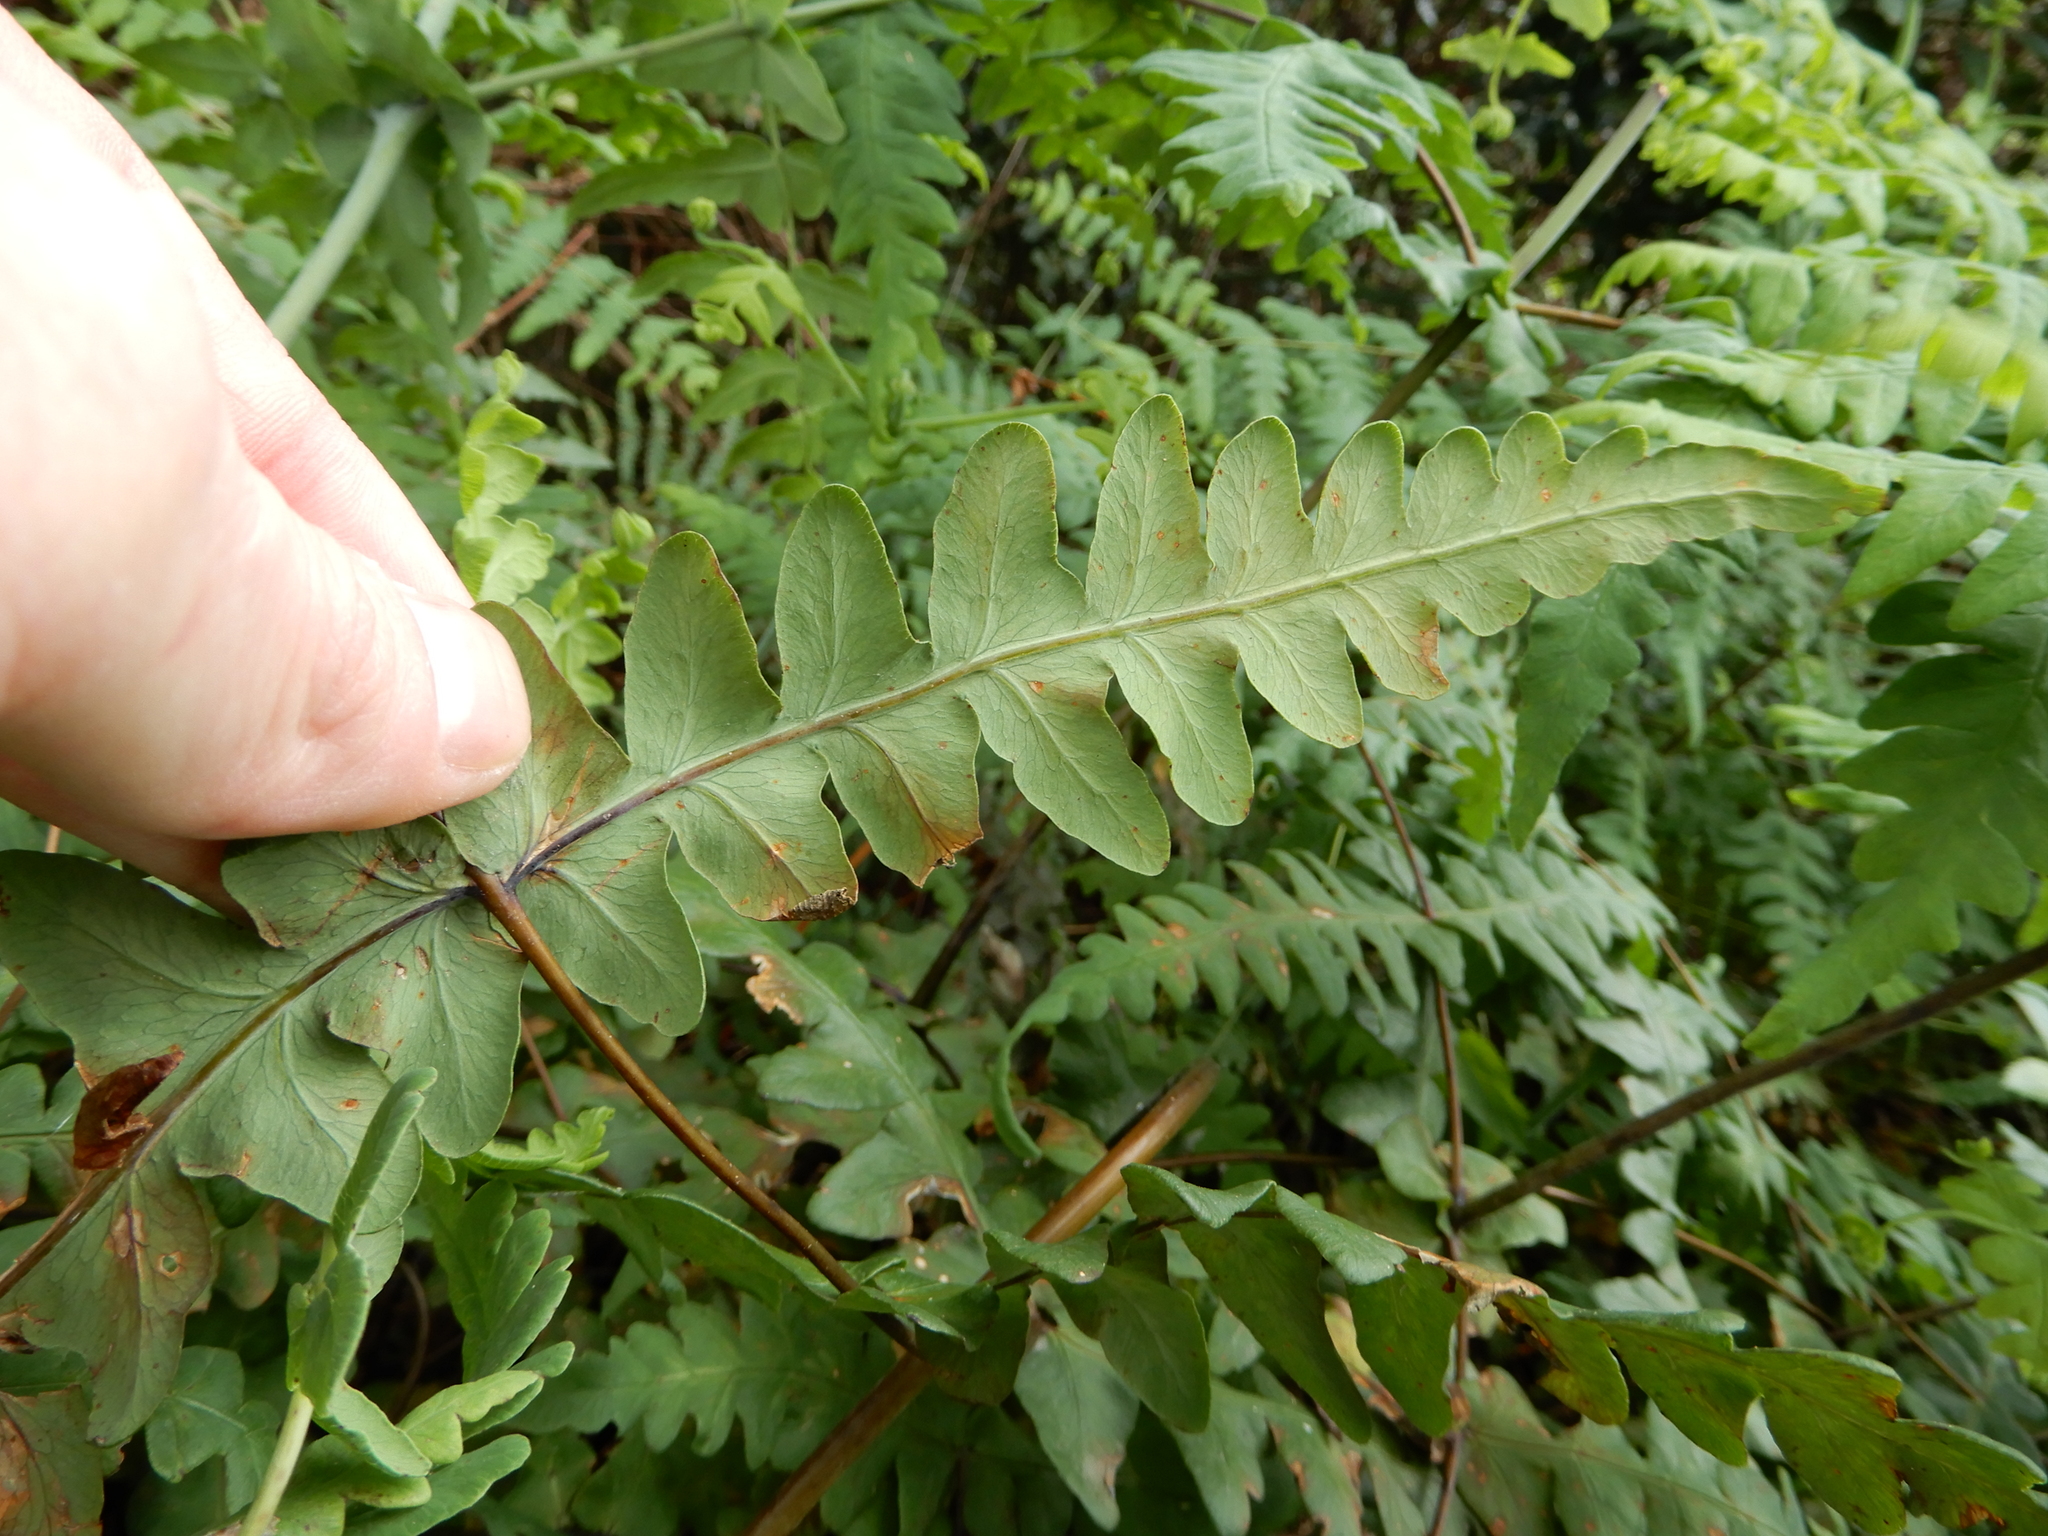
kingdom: Plantae
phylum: Tracheophyta
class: Polypodiopsida
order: Polypodiales
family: Dennstaedtiaceae
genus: Histiopteris
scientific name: Histiopteris incisa
